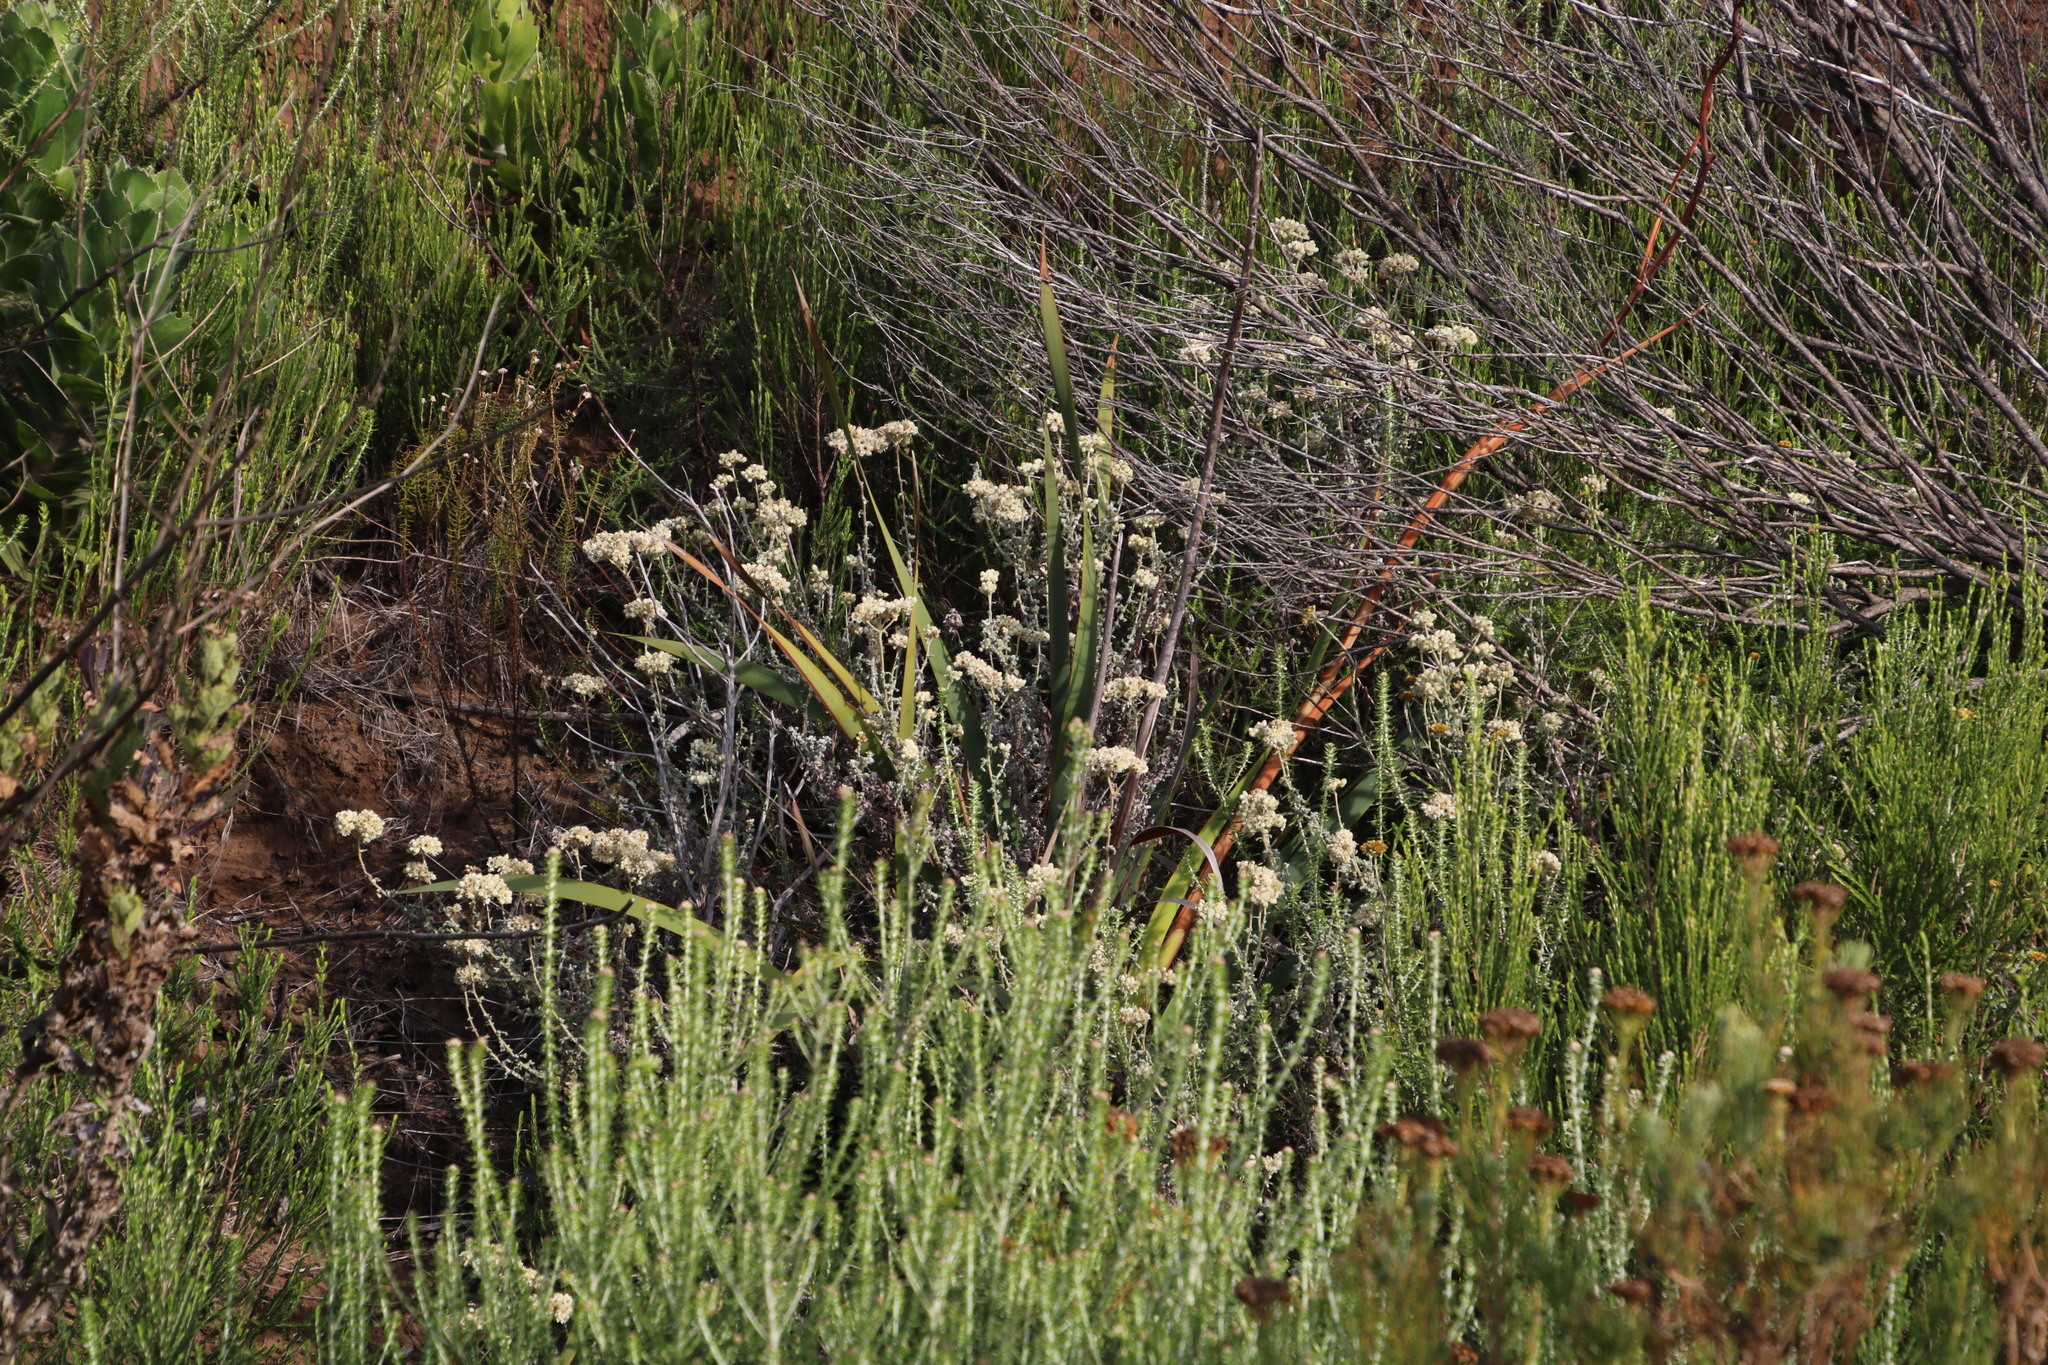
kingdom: Plantae
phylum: Tracheophyta
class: Magnoliopsida
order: Asterales
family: Asteraceae
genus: Helichrysum
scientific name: Helichrysum patulum
